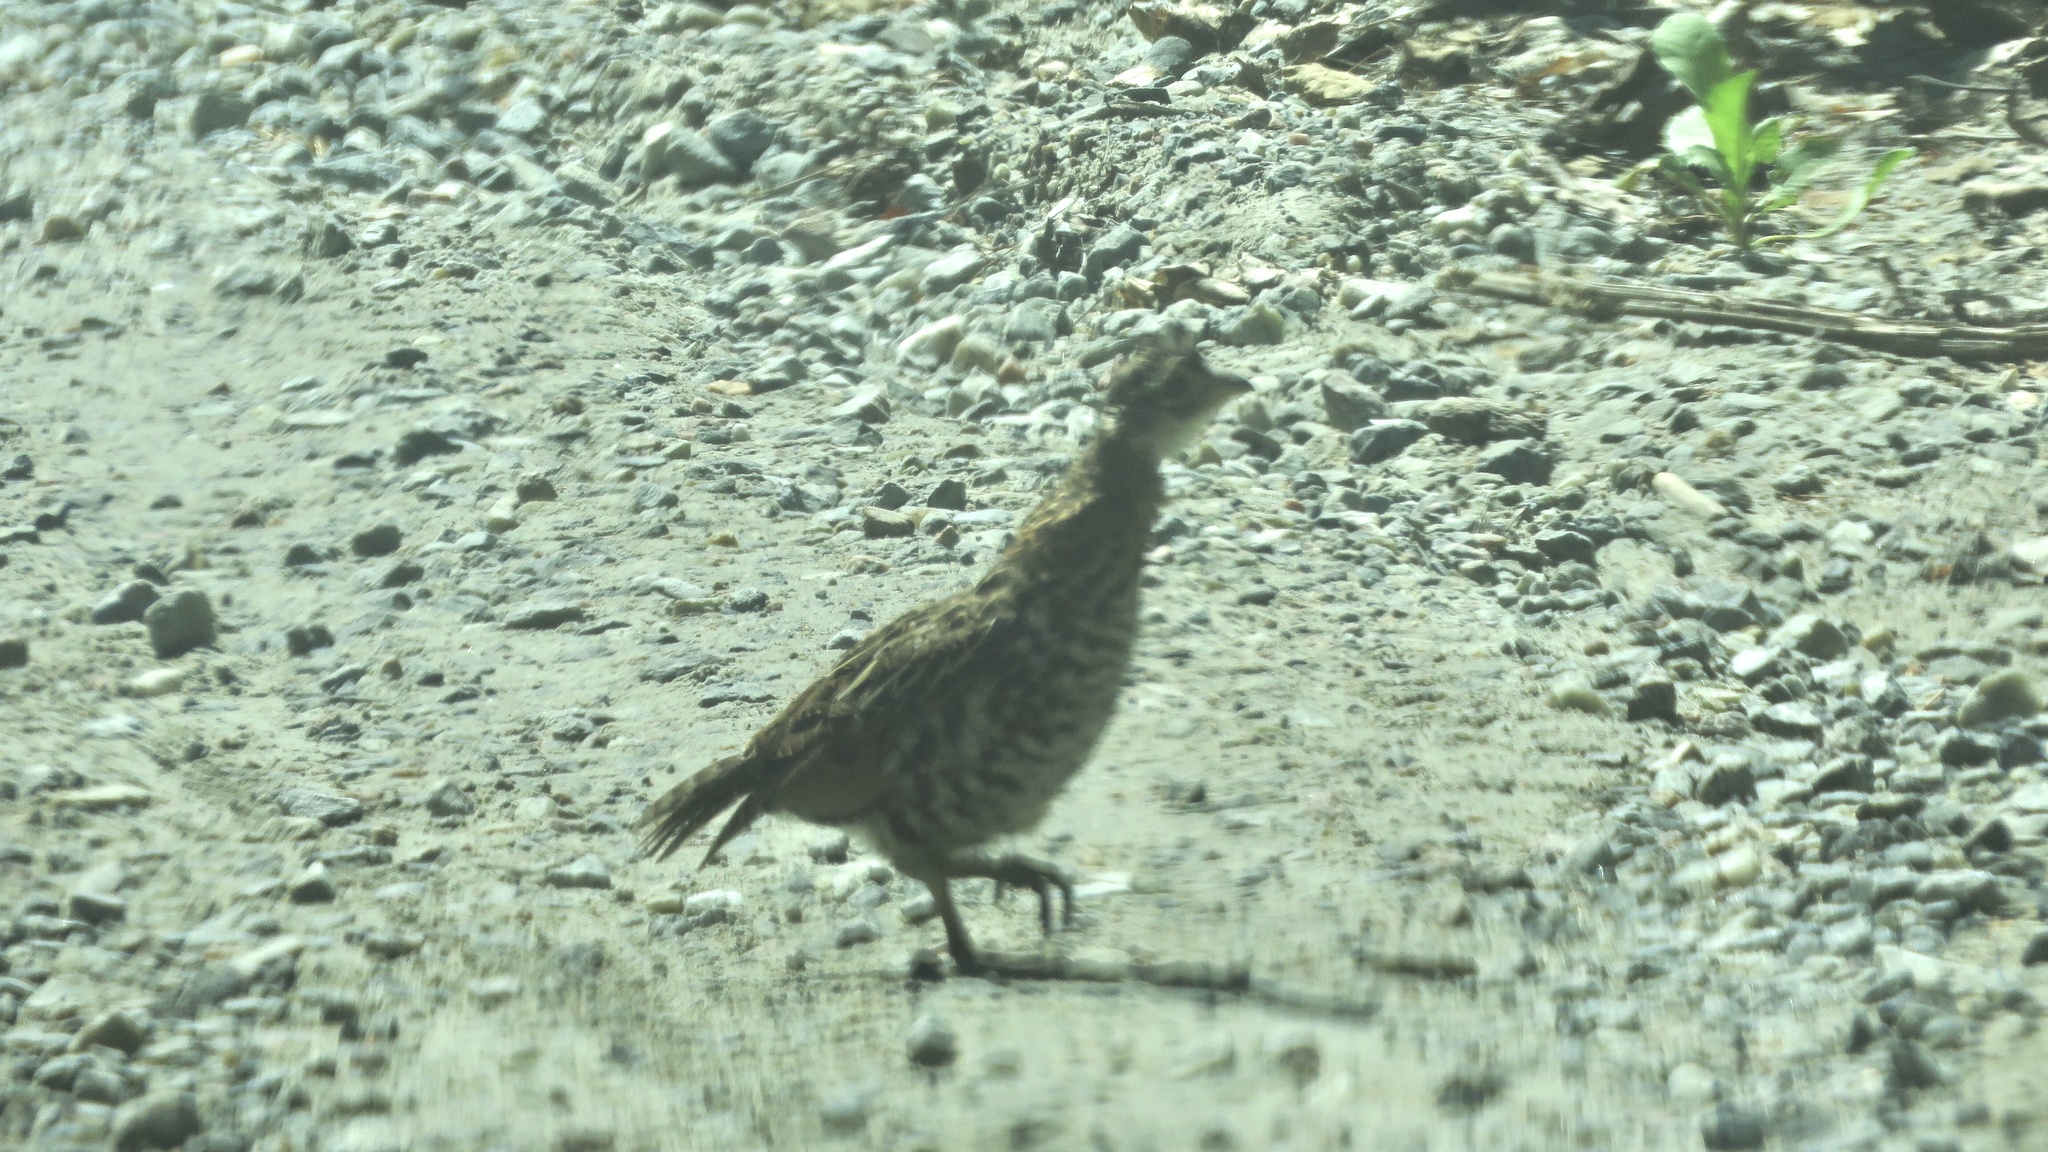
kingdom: Animalia
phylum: Chordata
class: Aves
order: Galliformes
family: Phasianidae
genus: Bonasa
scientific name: Bonasa umbellus
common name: Ruffed grouse
